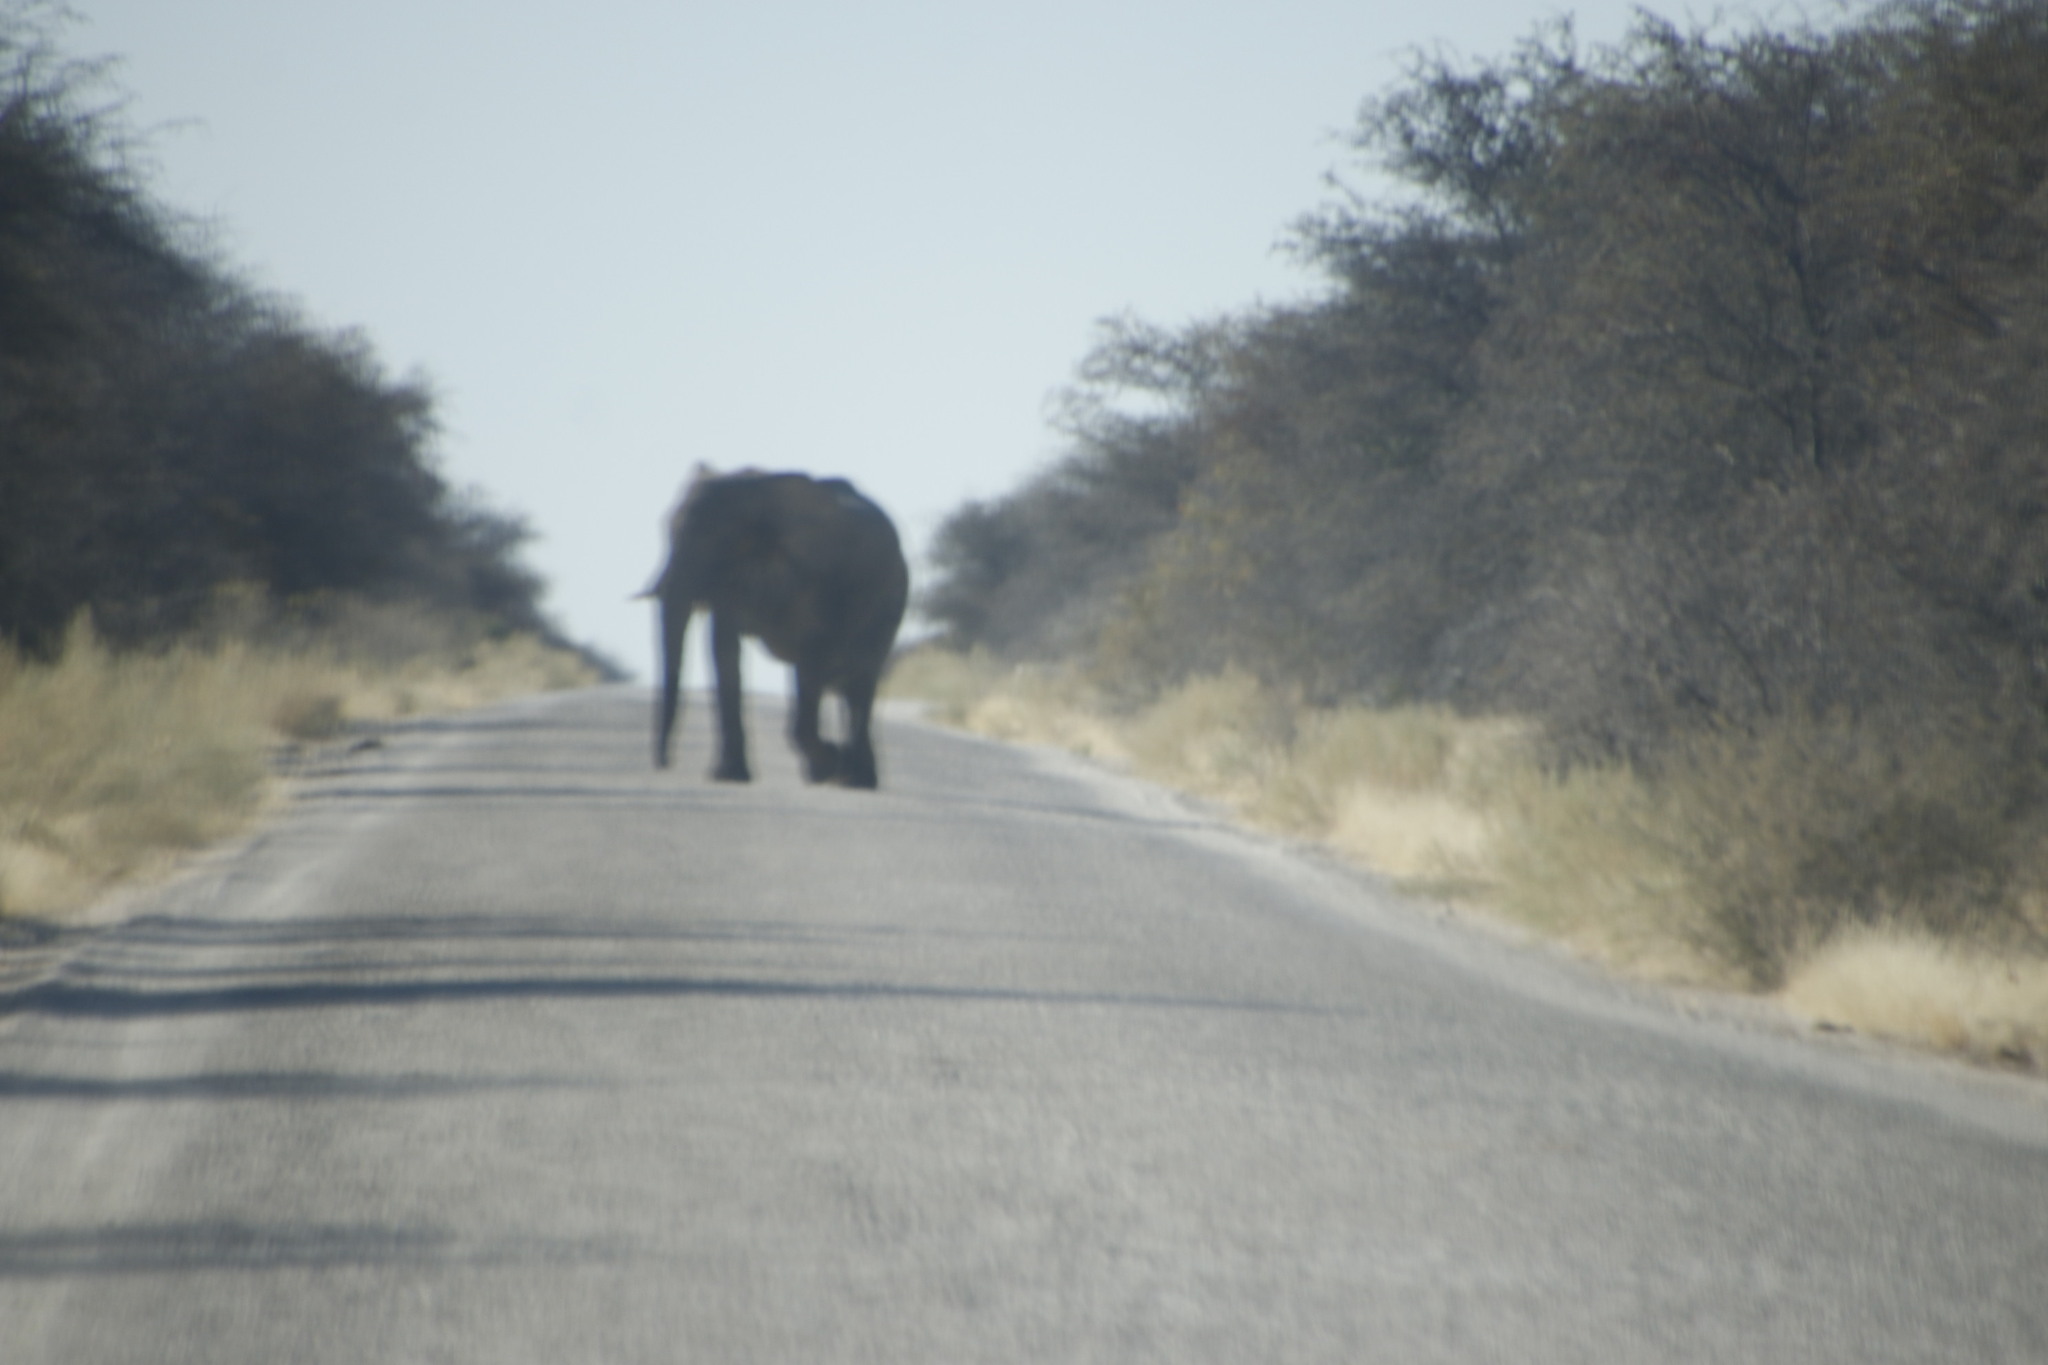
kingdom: Animalia
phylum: Chordata
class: Mammalia
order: Proboscidea
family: Elephantidae
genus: Loxodonta
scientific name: Loxodonta africana
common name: African elephant
